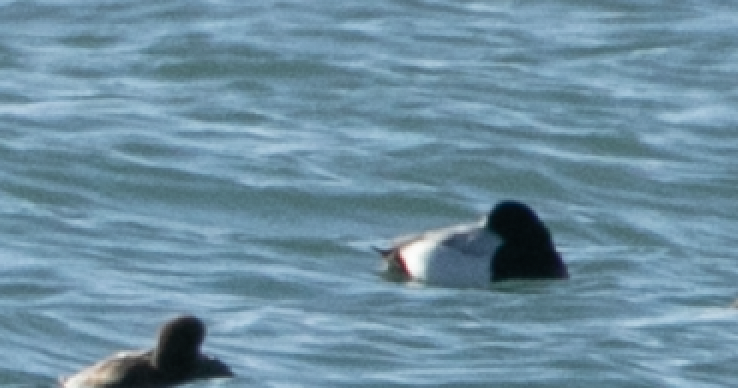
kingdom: Animalia
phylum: Chordata
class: Aves
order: Anseriformes
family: Anatidae
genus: Aythya
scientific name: Aythya marila
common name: Greater scaup
